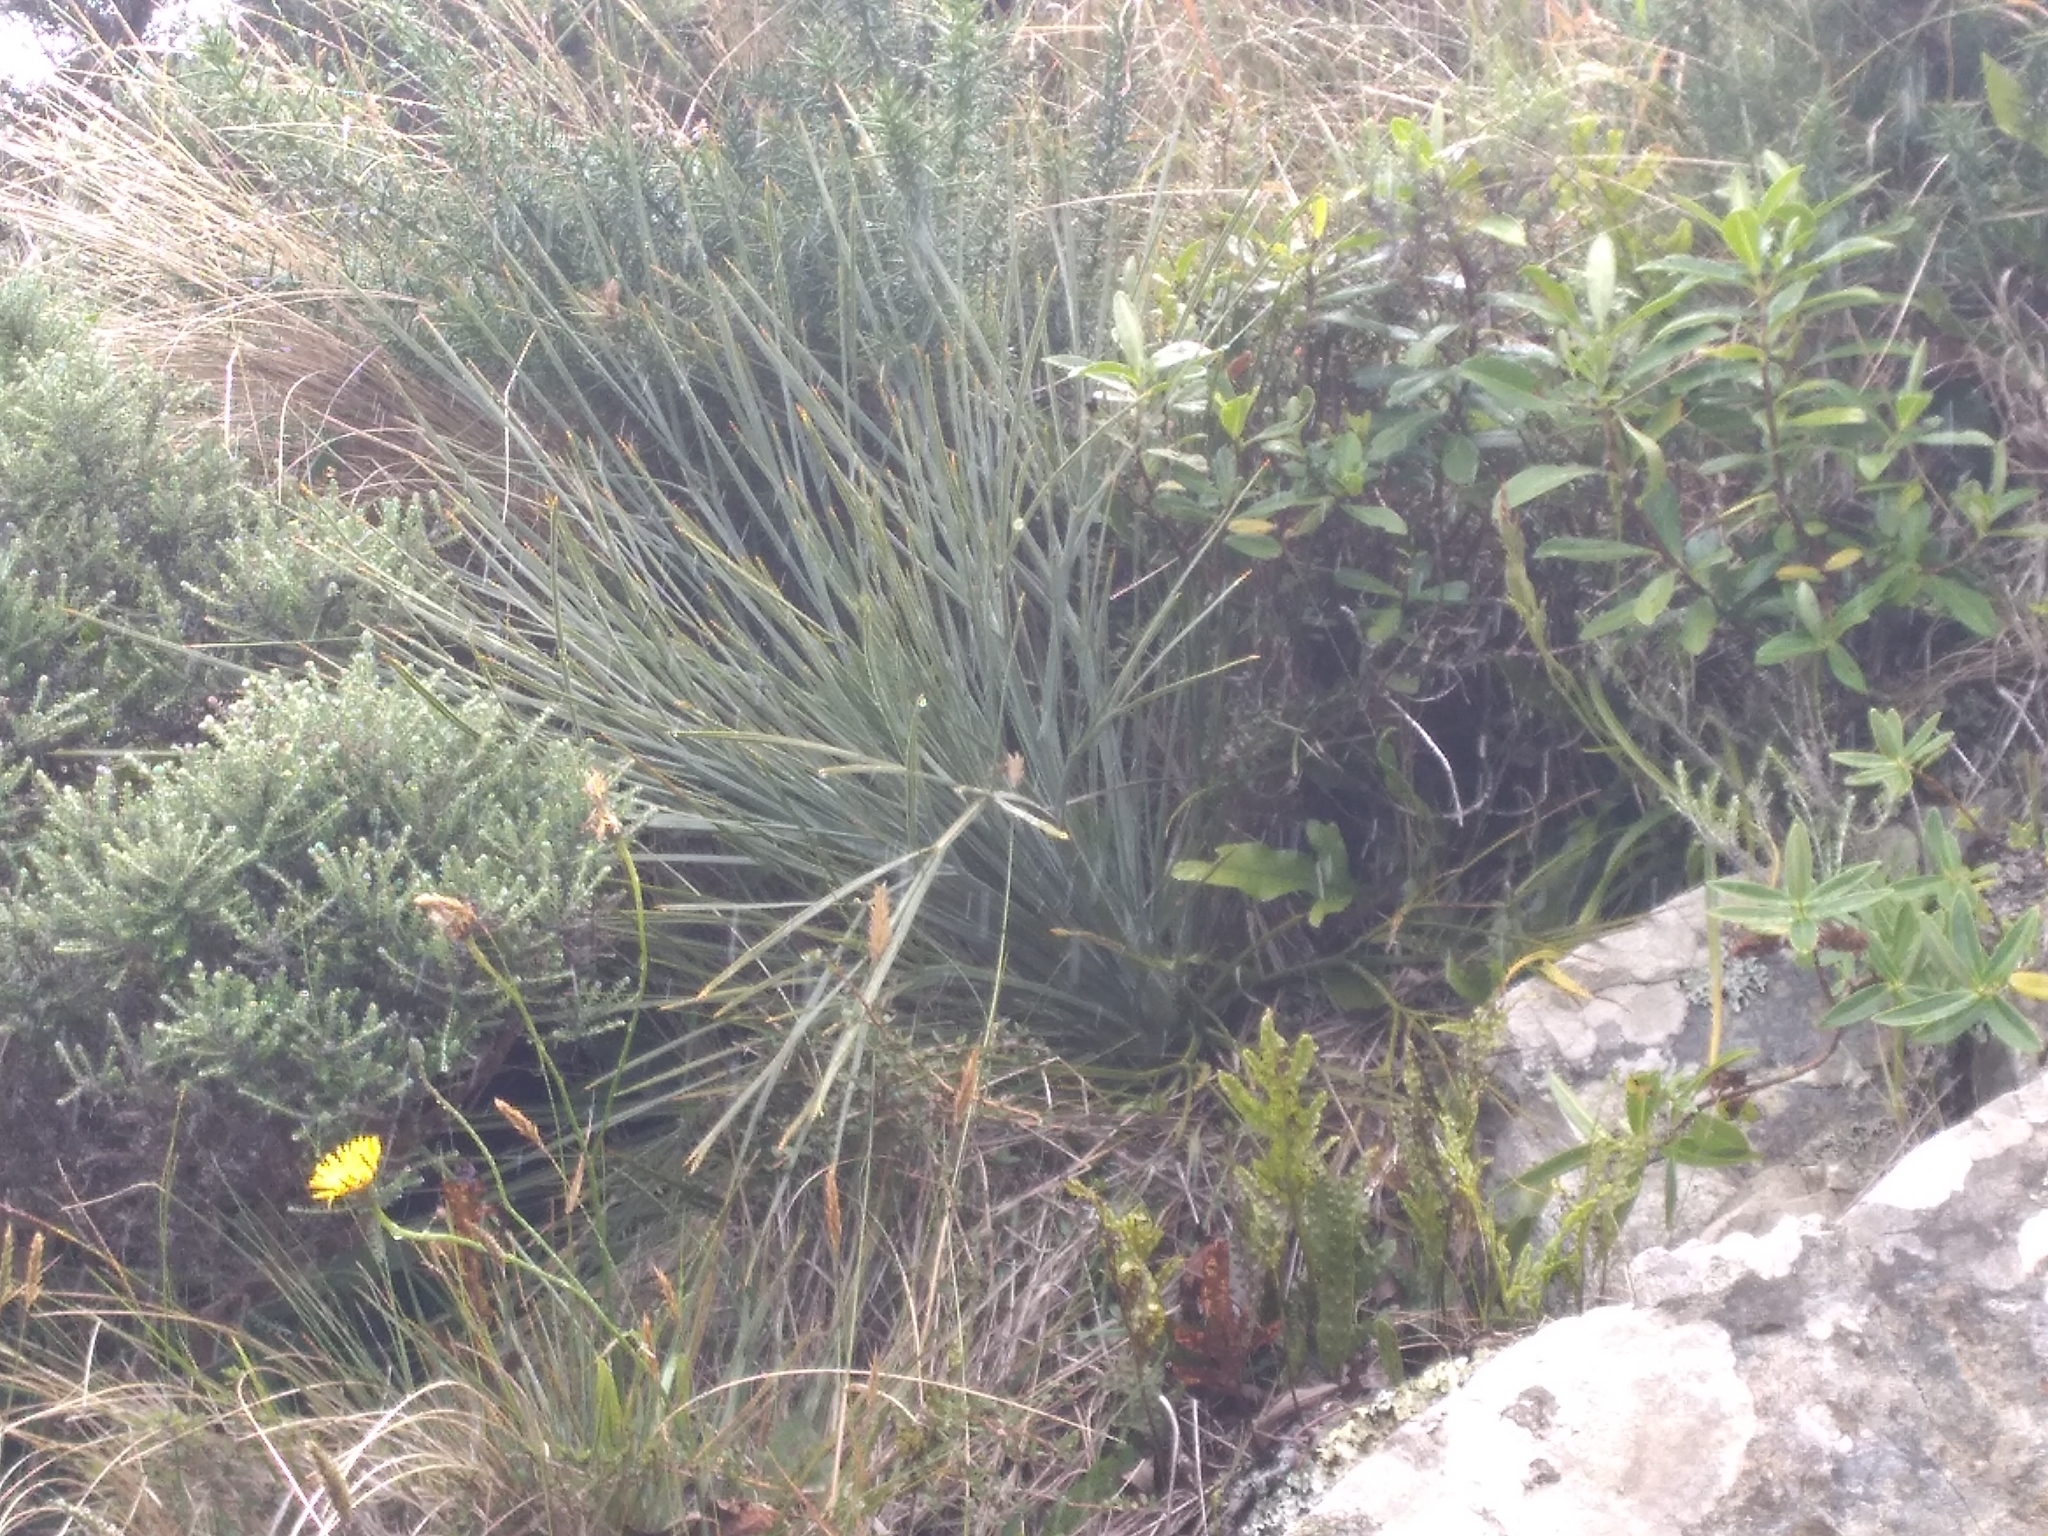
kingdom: Plantae
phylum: Tracheophyta
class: Magnoliopsida
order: Apiales
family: Apiaceae
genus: Aciphylla
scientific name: Aciphylla squarrosa
